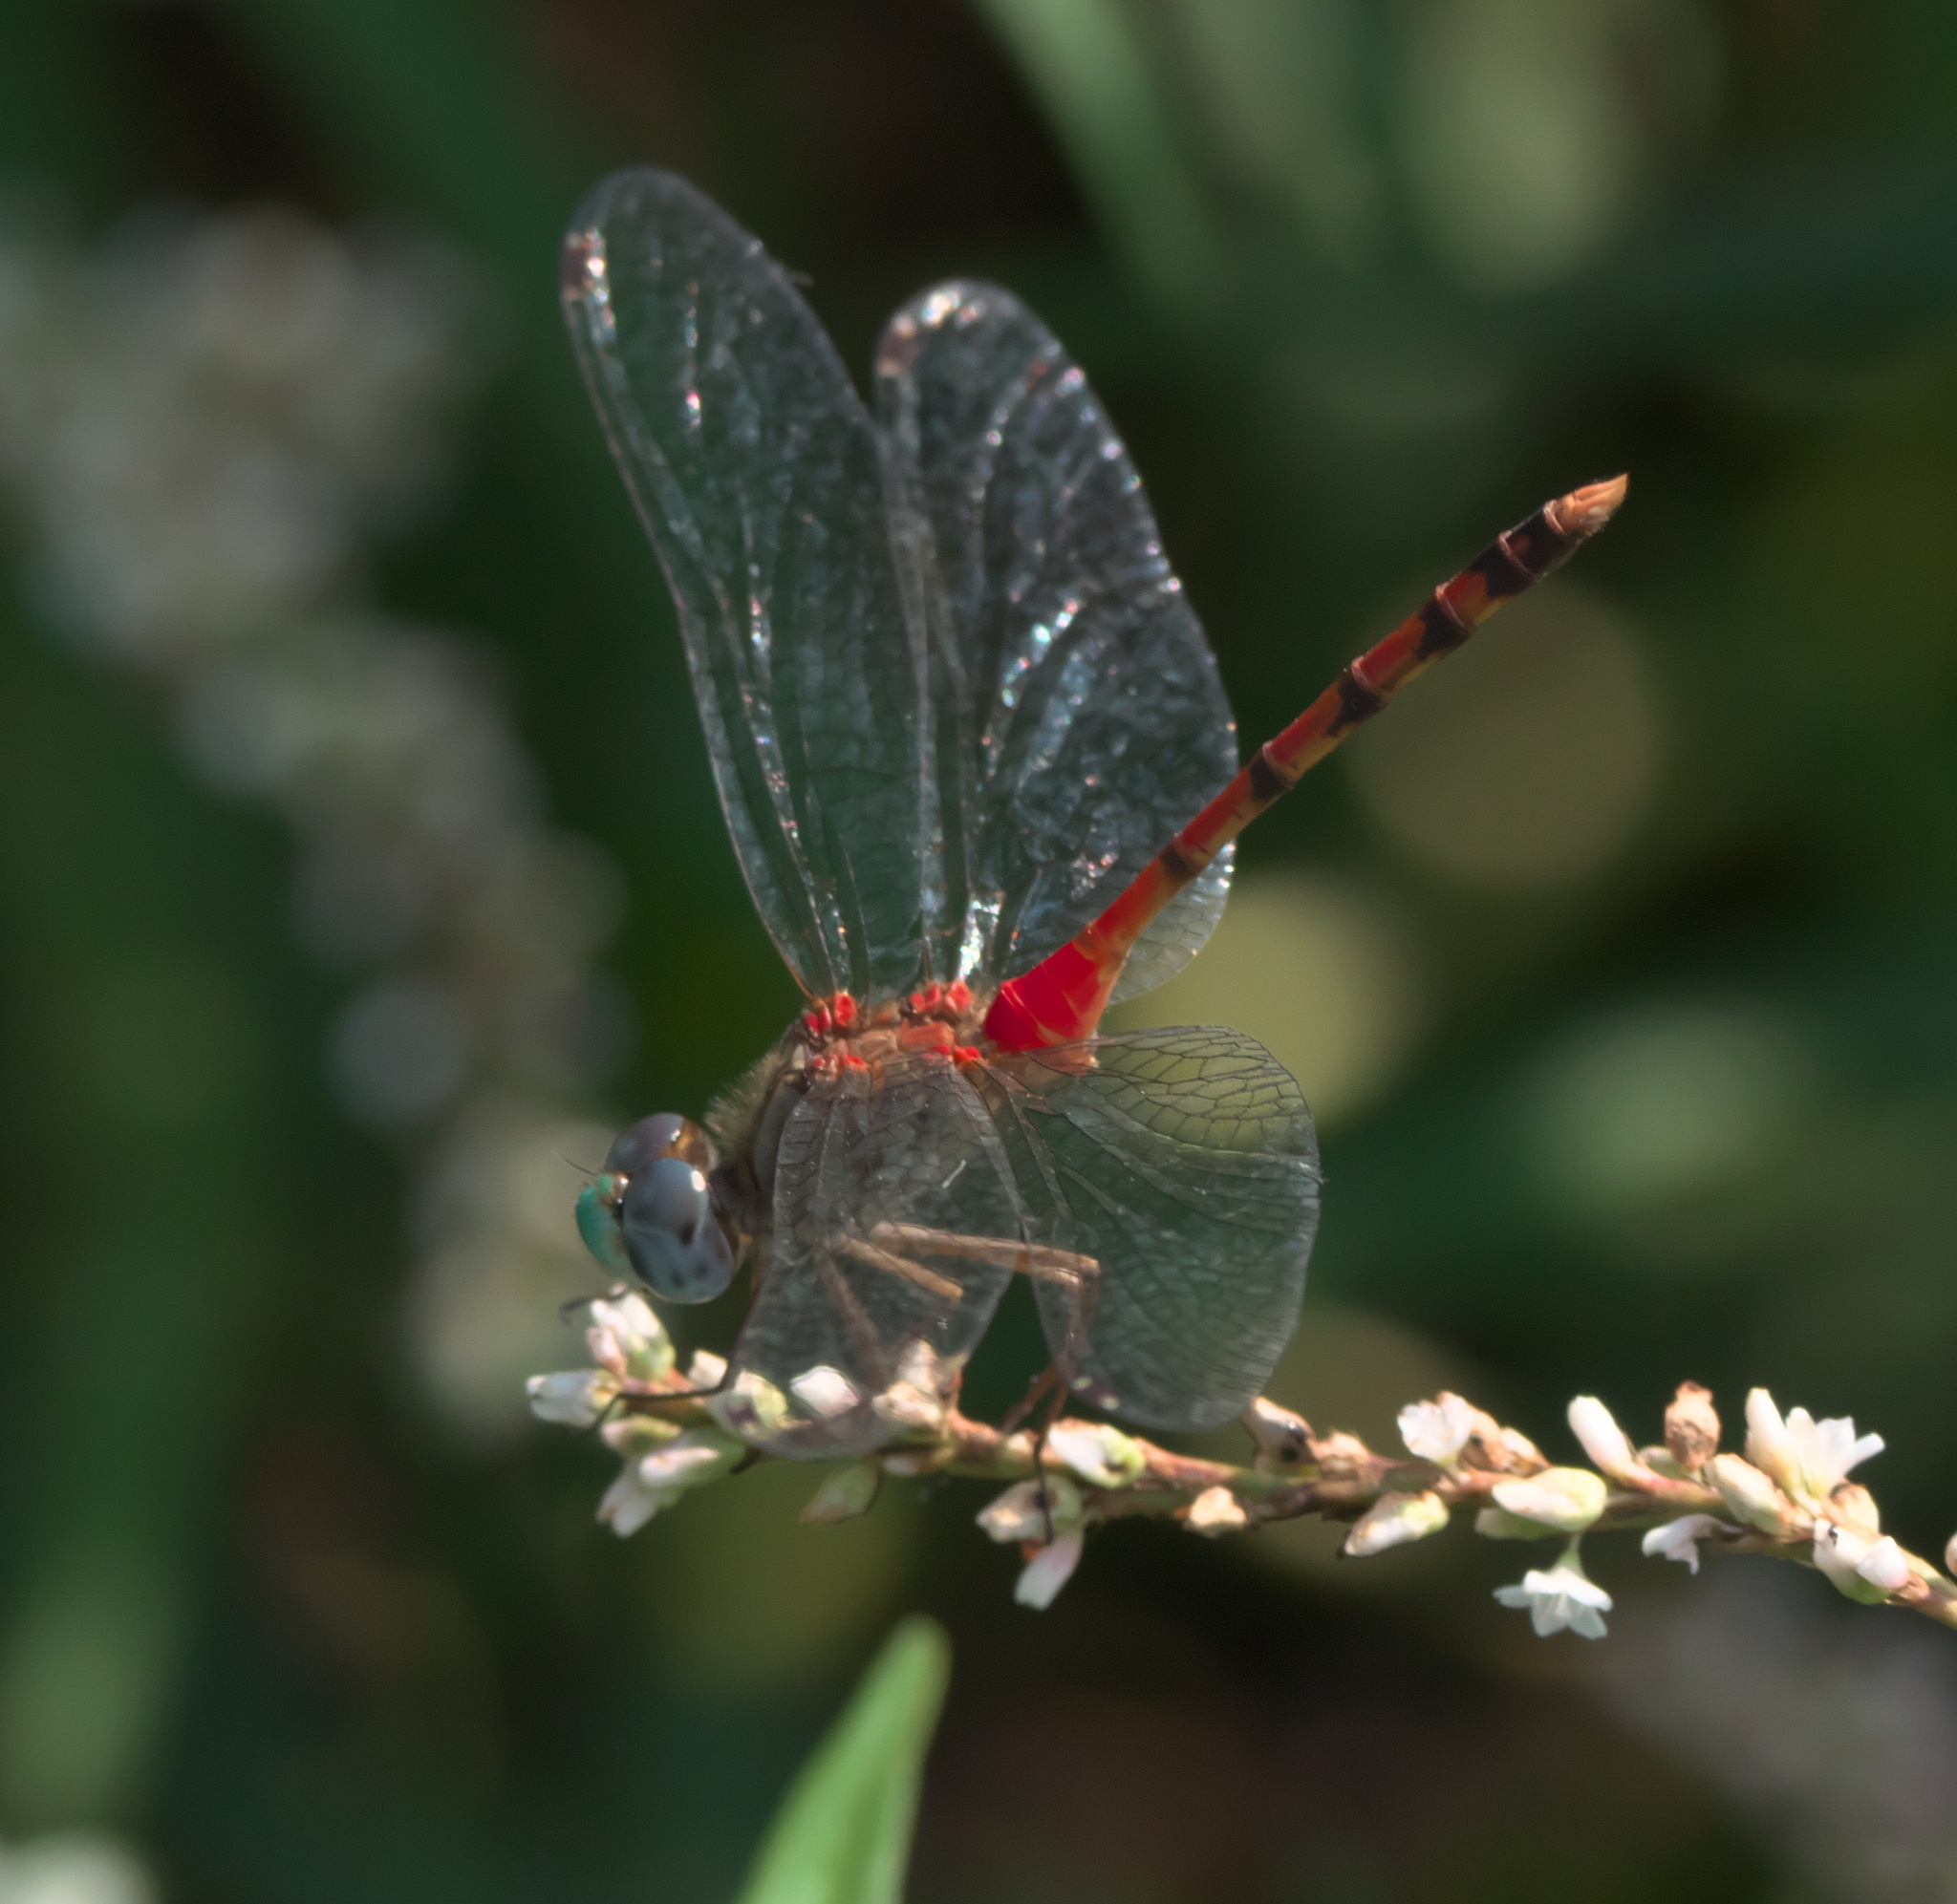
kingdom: Animalia
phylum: Arthropoda
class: Insecta
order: Odonata
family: Libellulidae
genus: Sympetrum
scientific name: Sympetrum ambiguum
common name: Blue-faced meadowhawk
